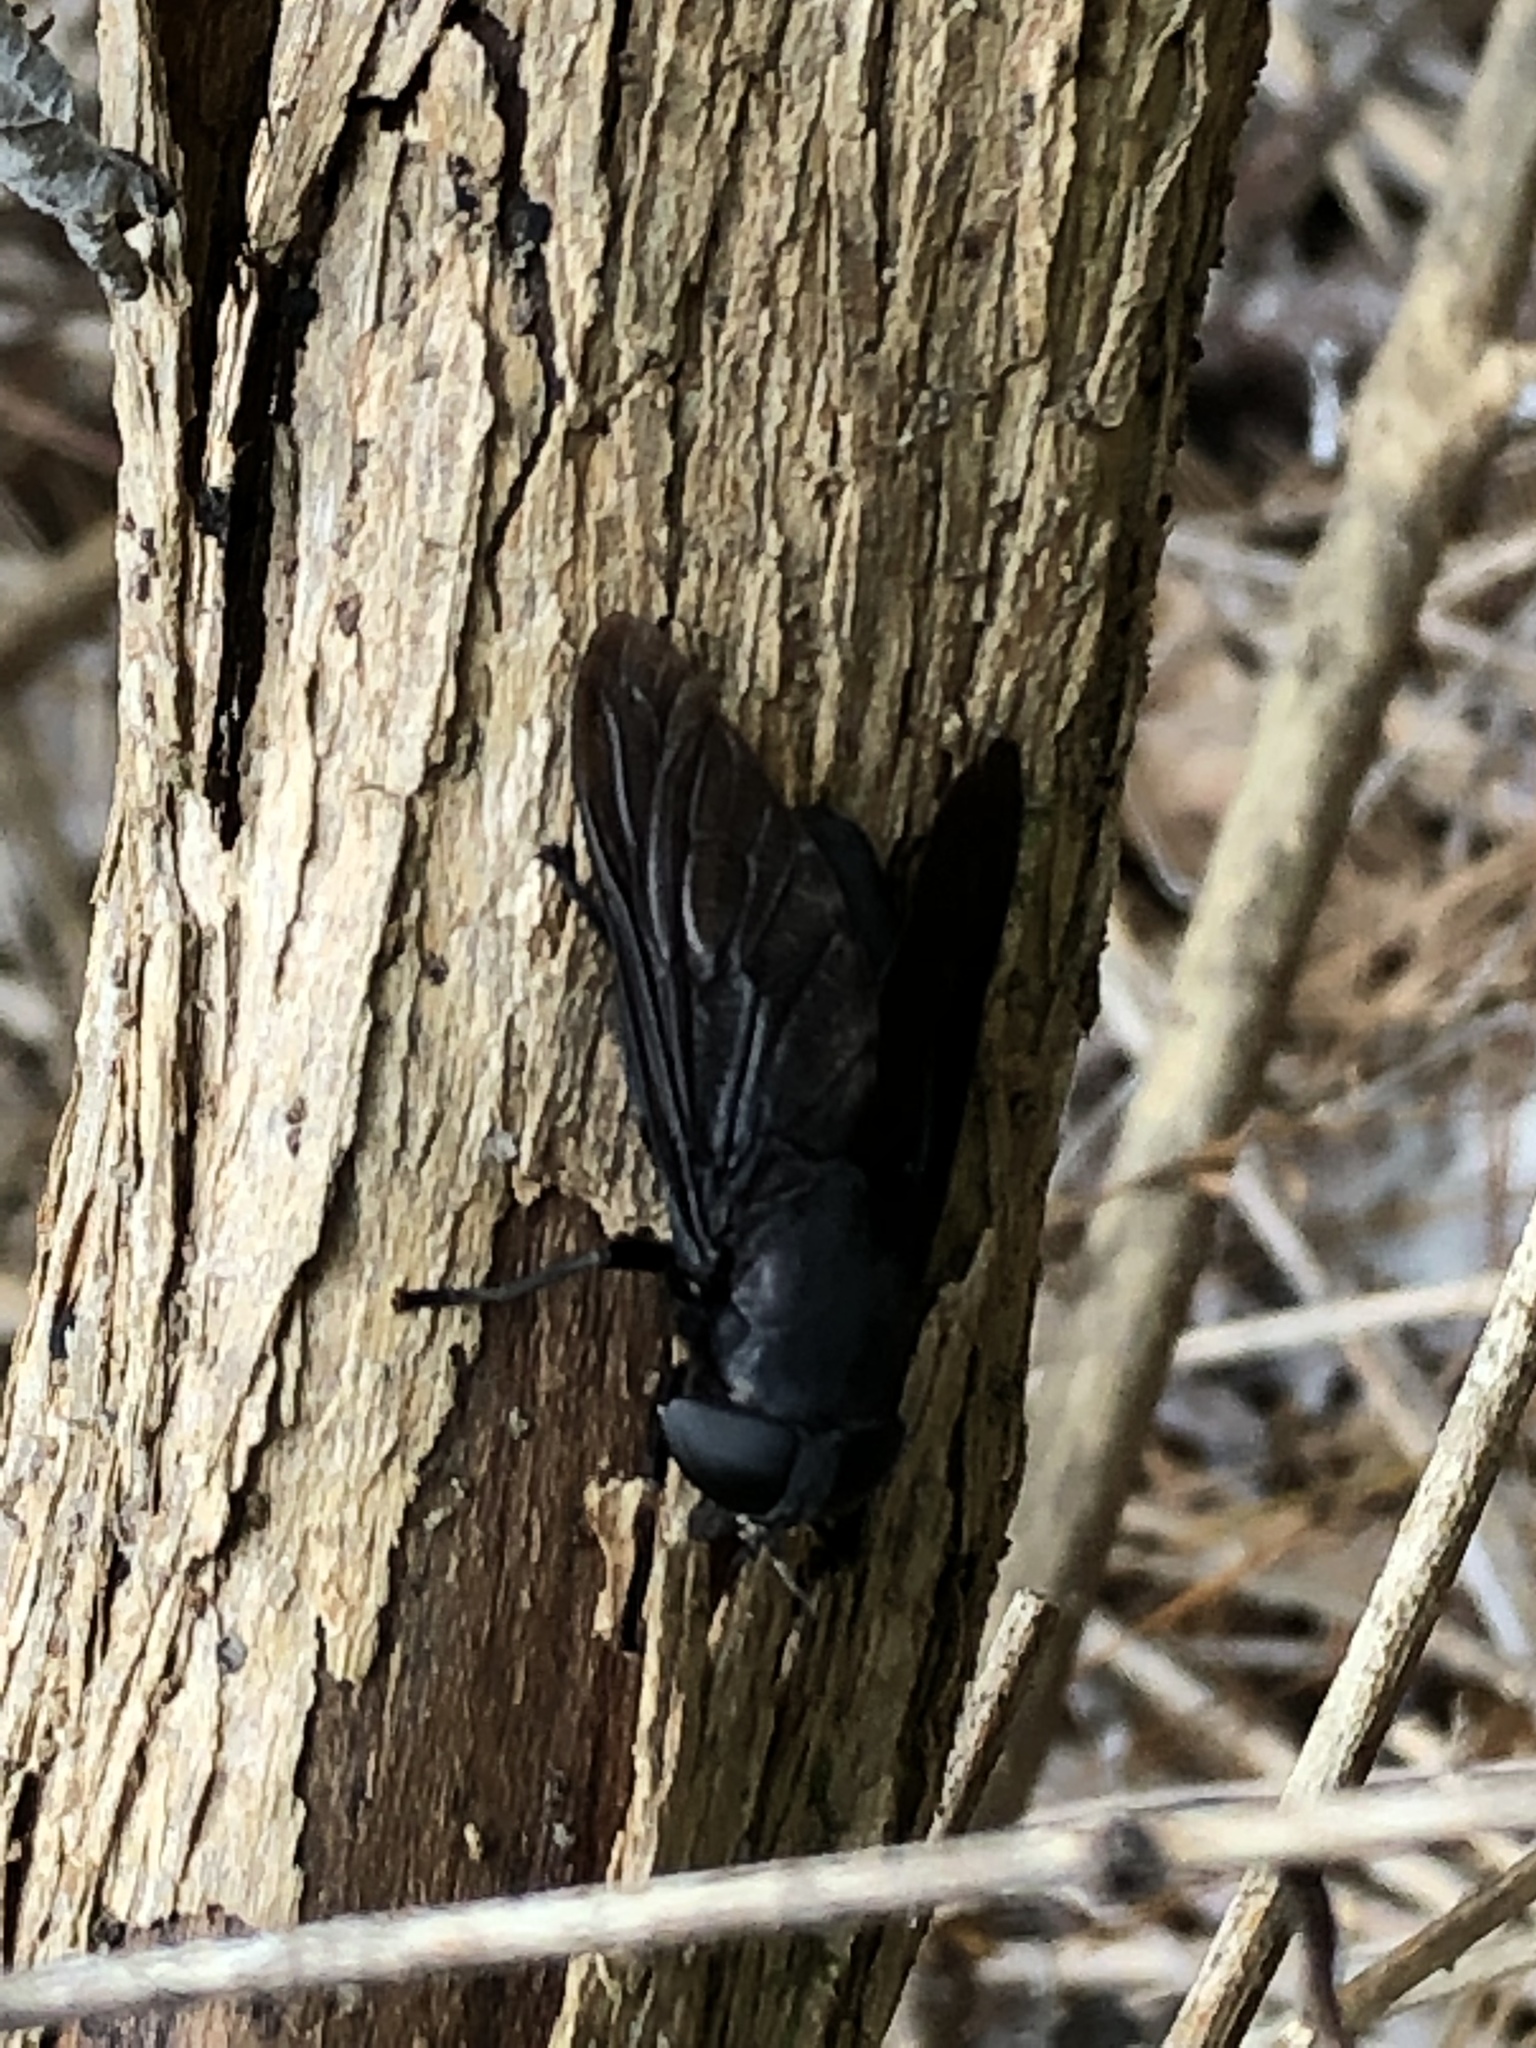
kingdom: Animalia
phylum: Arthropoda
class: Insecta
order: Diptera
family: Tabanidae
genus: Tabanus
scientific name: Tabanus atratus
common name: Black horse fly
